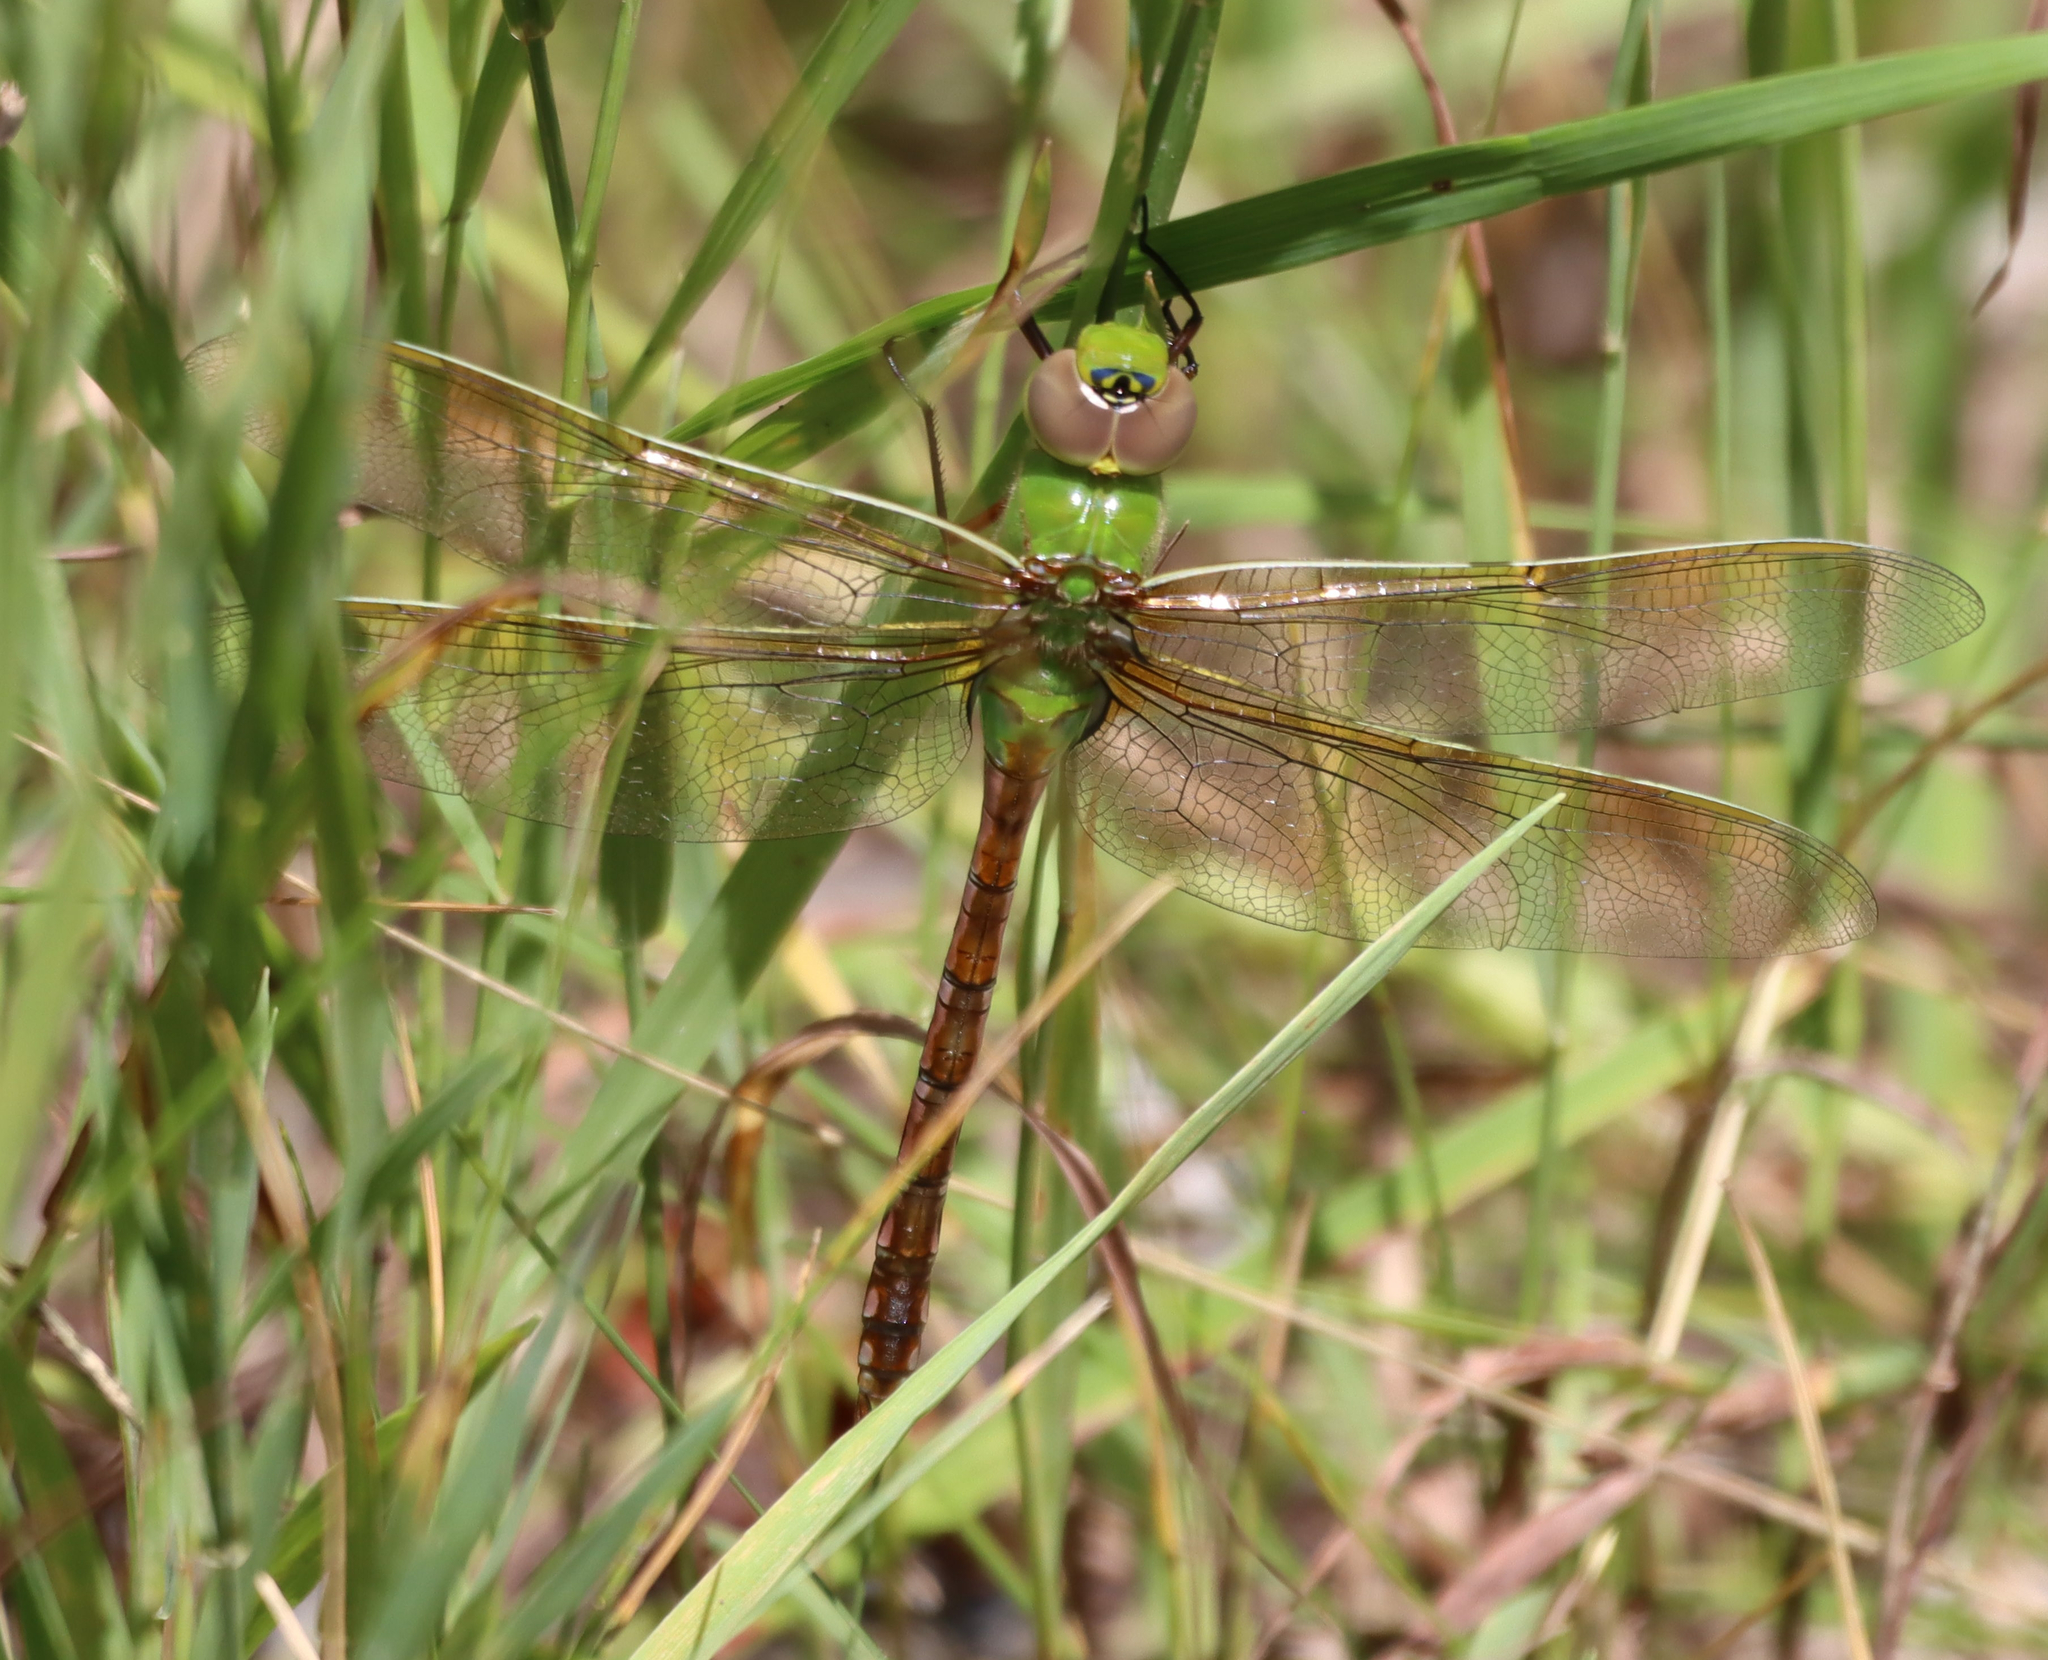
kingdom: Animalia
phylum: Arthropoda
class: Insecta
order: Odonata
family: Aeshnidae
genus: Anax
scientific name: Anax junius
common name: Common green darner
